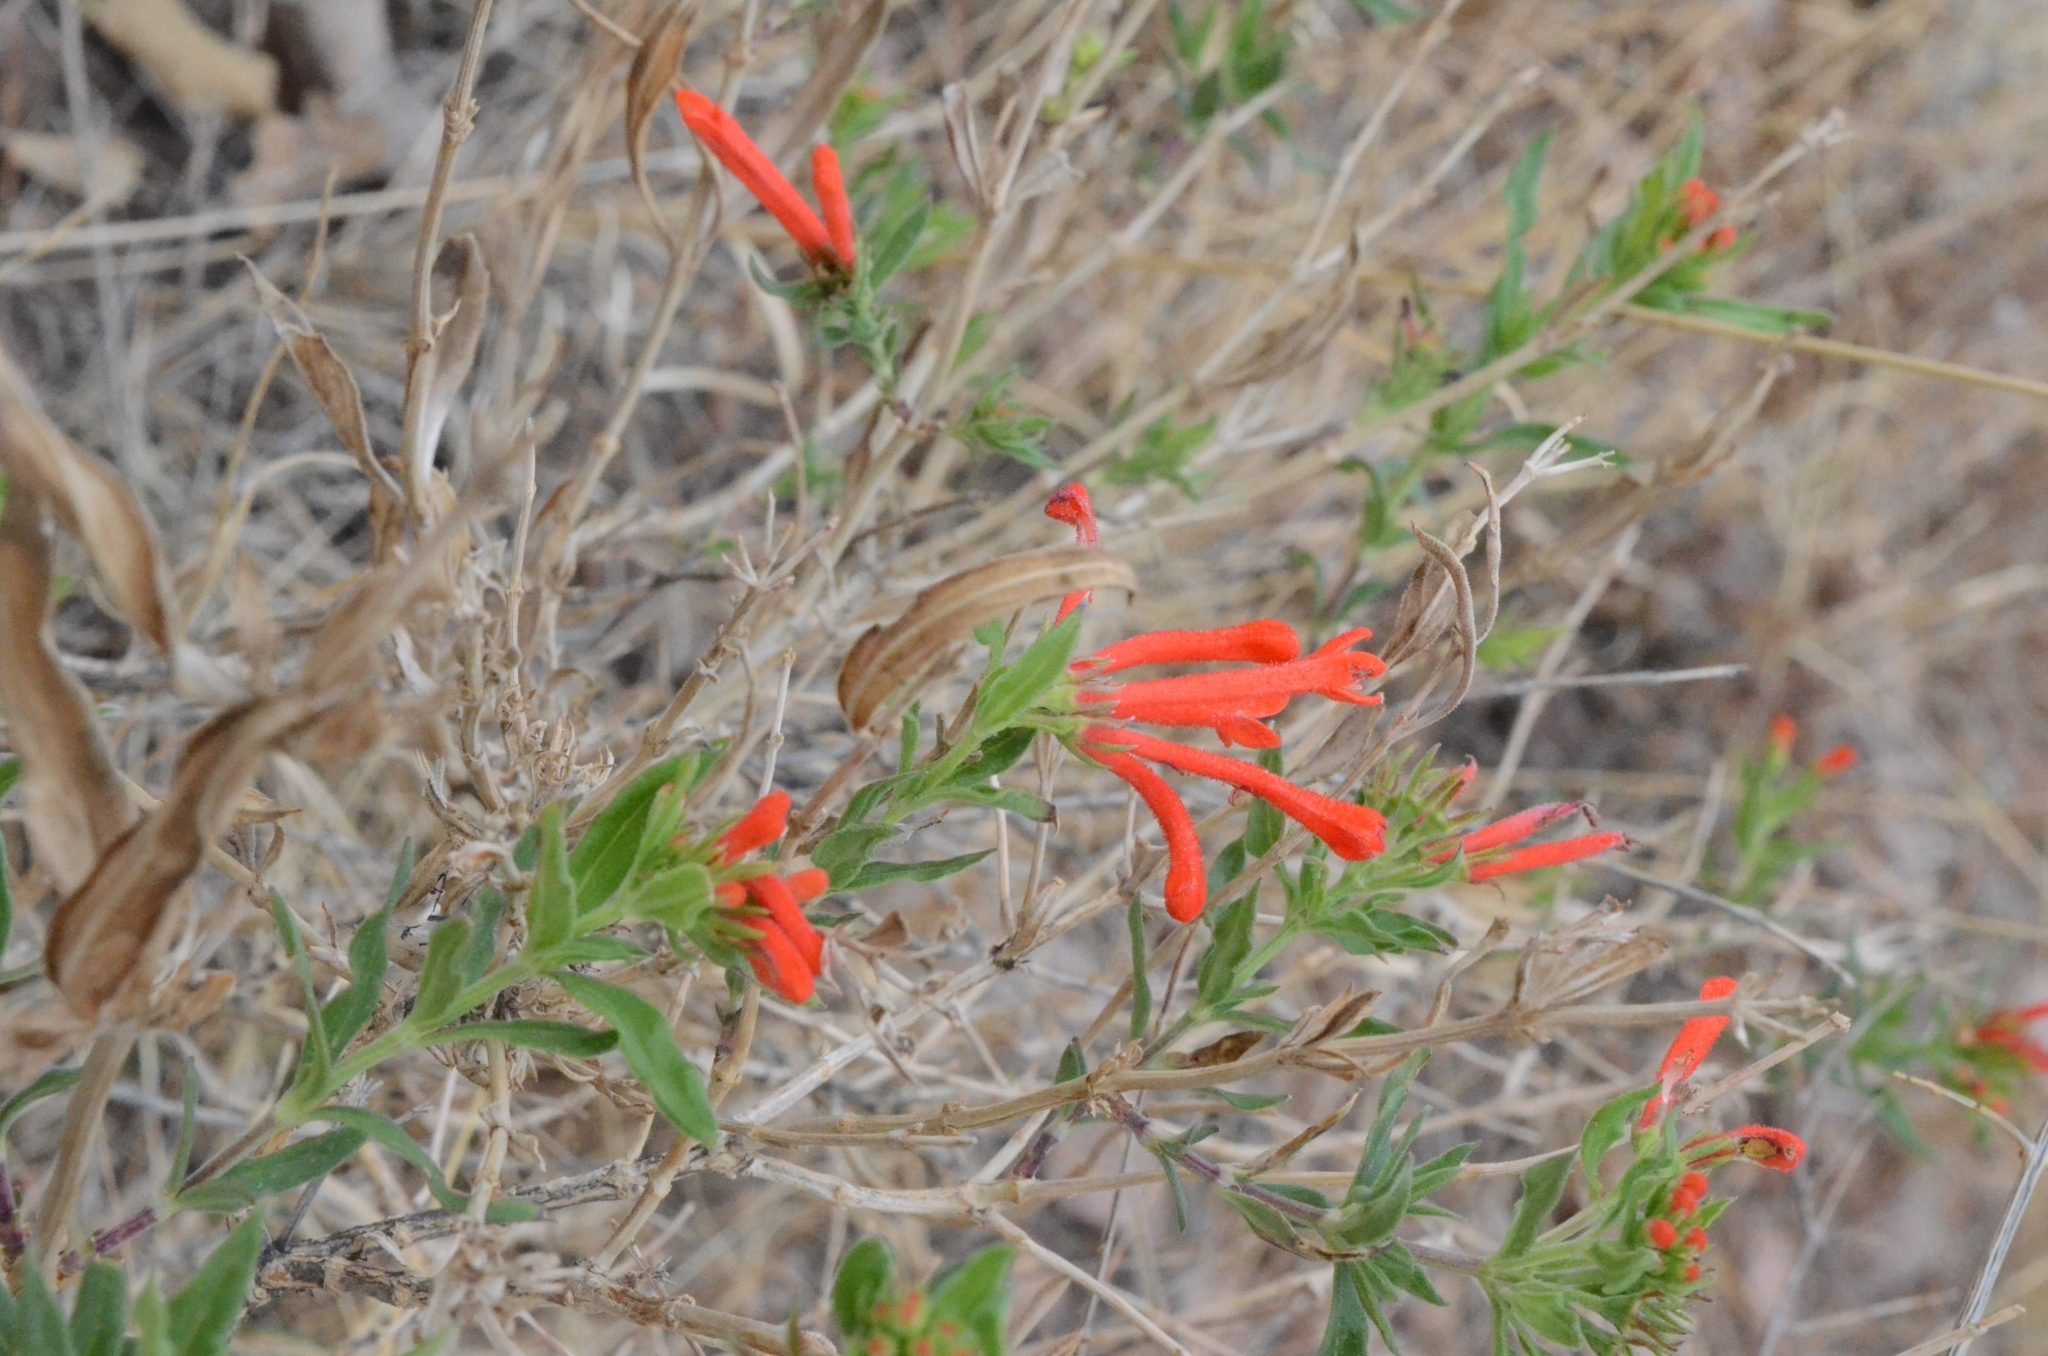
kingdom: Plantae
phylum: Tracheophyta
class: Magnoliopsida
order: Gentianales
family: Rubiaceae
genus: Bouvardia
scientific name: Bouvardia ternifolia
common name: Scarlet bouvardia
